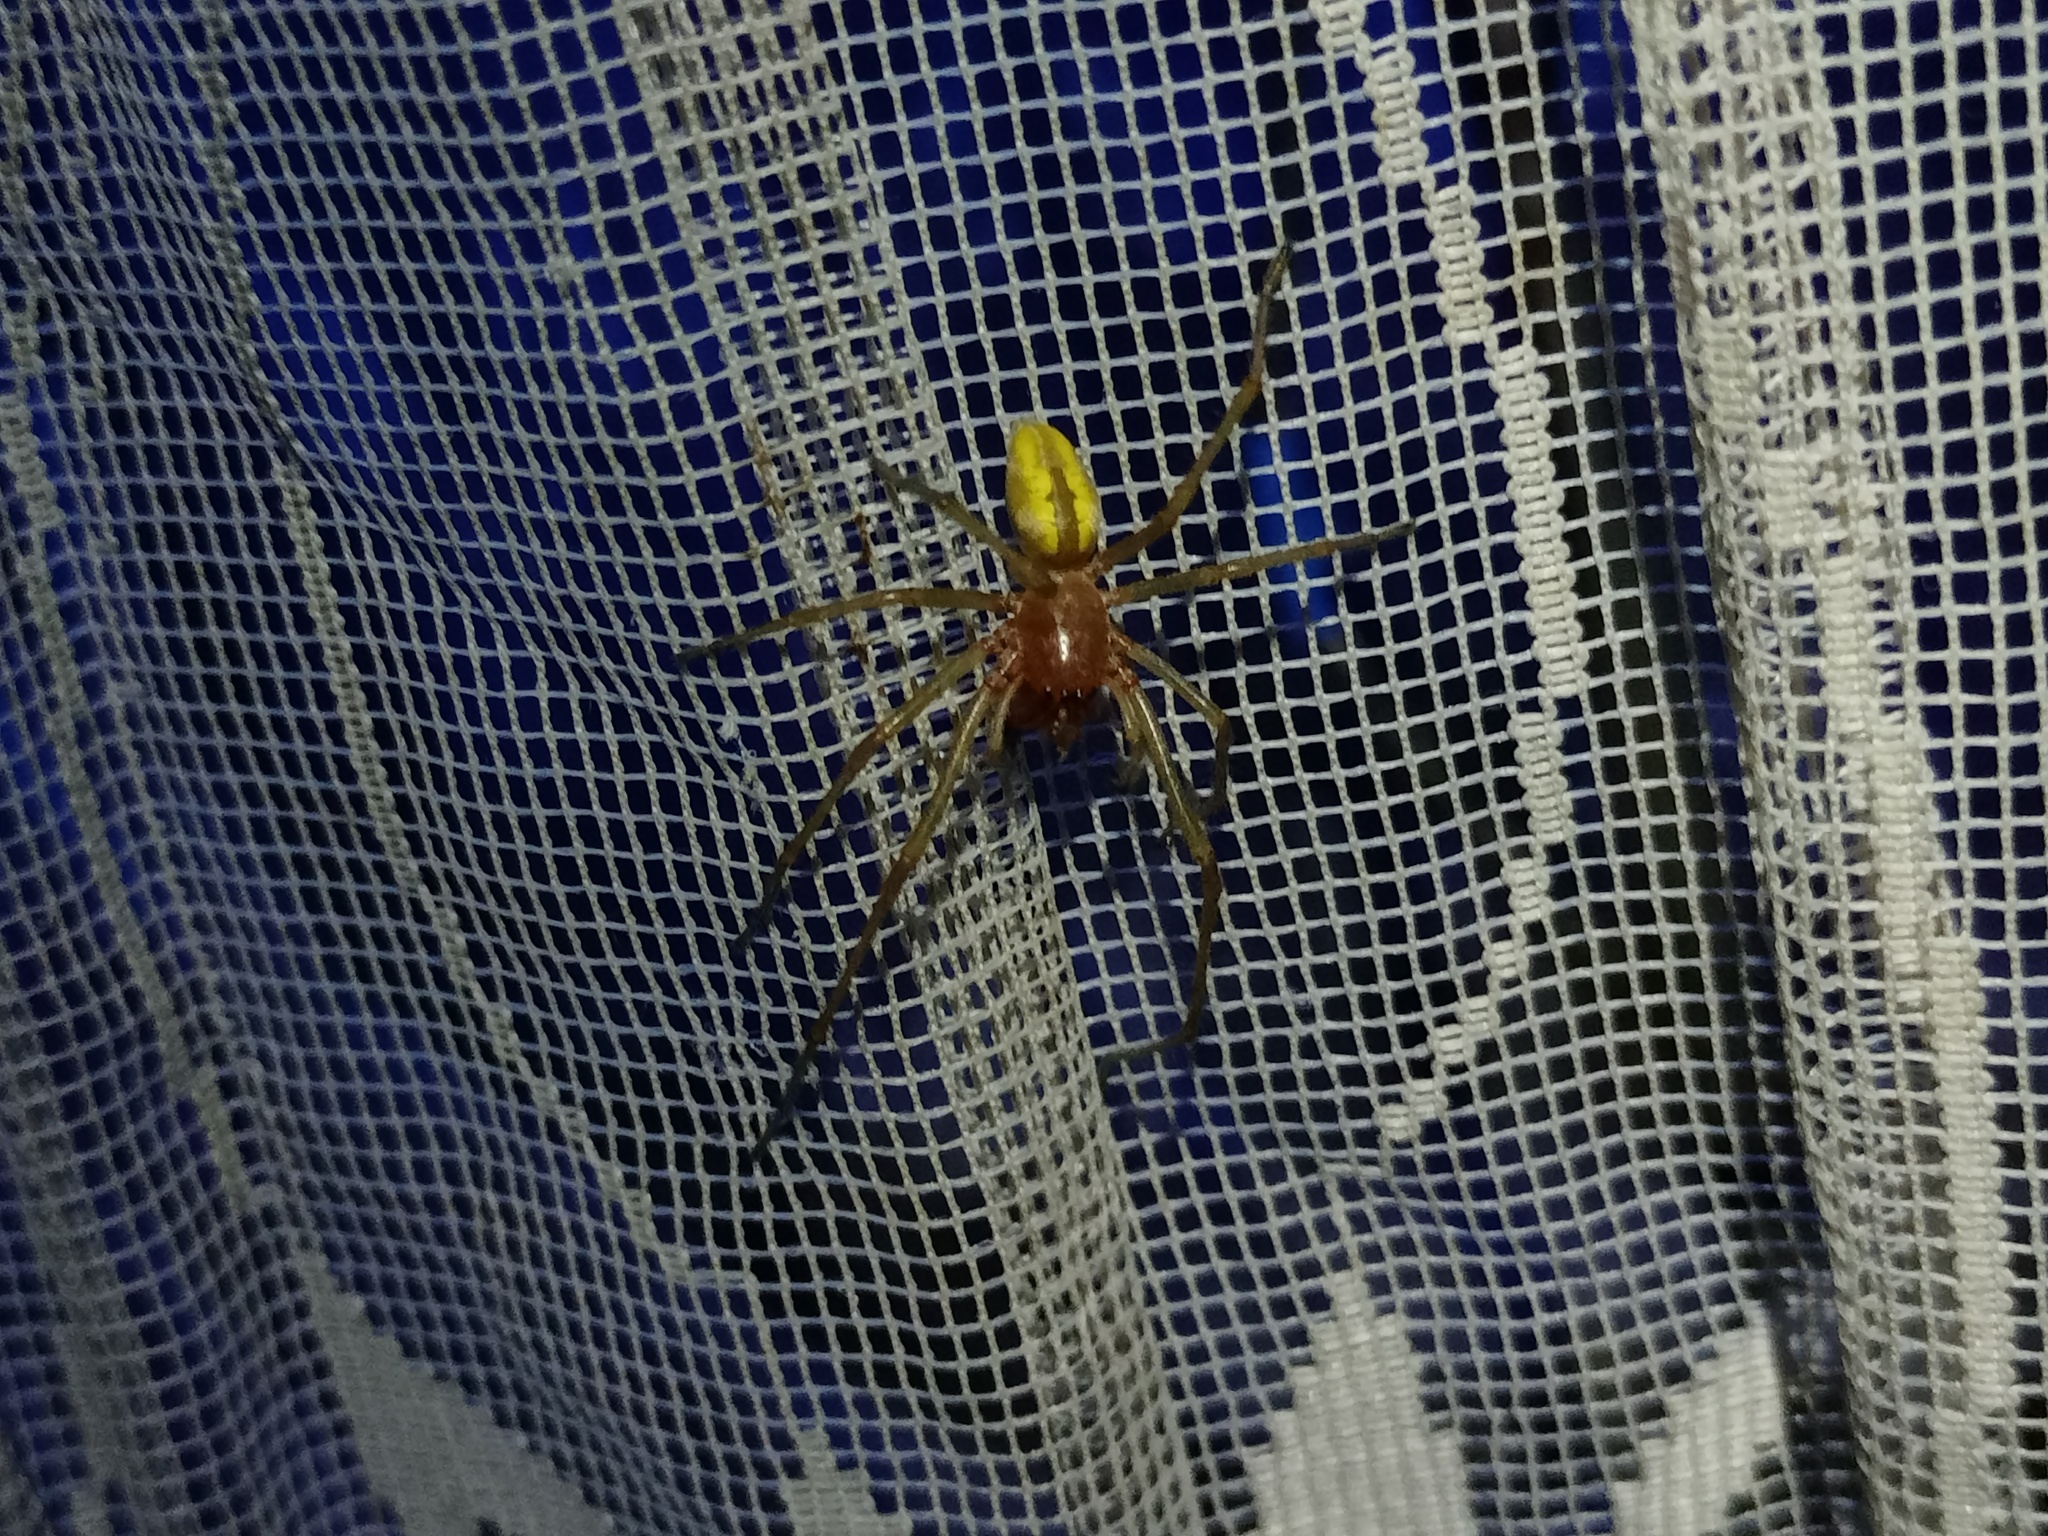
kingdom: Animalia
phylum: Arthropoda
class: Arachnida
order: Araneae
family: Cheiracanthiidae
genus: Cheiracanthium
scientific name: Cheiracanthium punctorium
